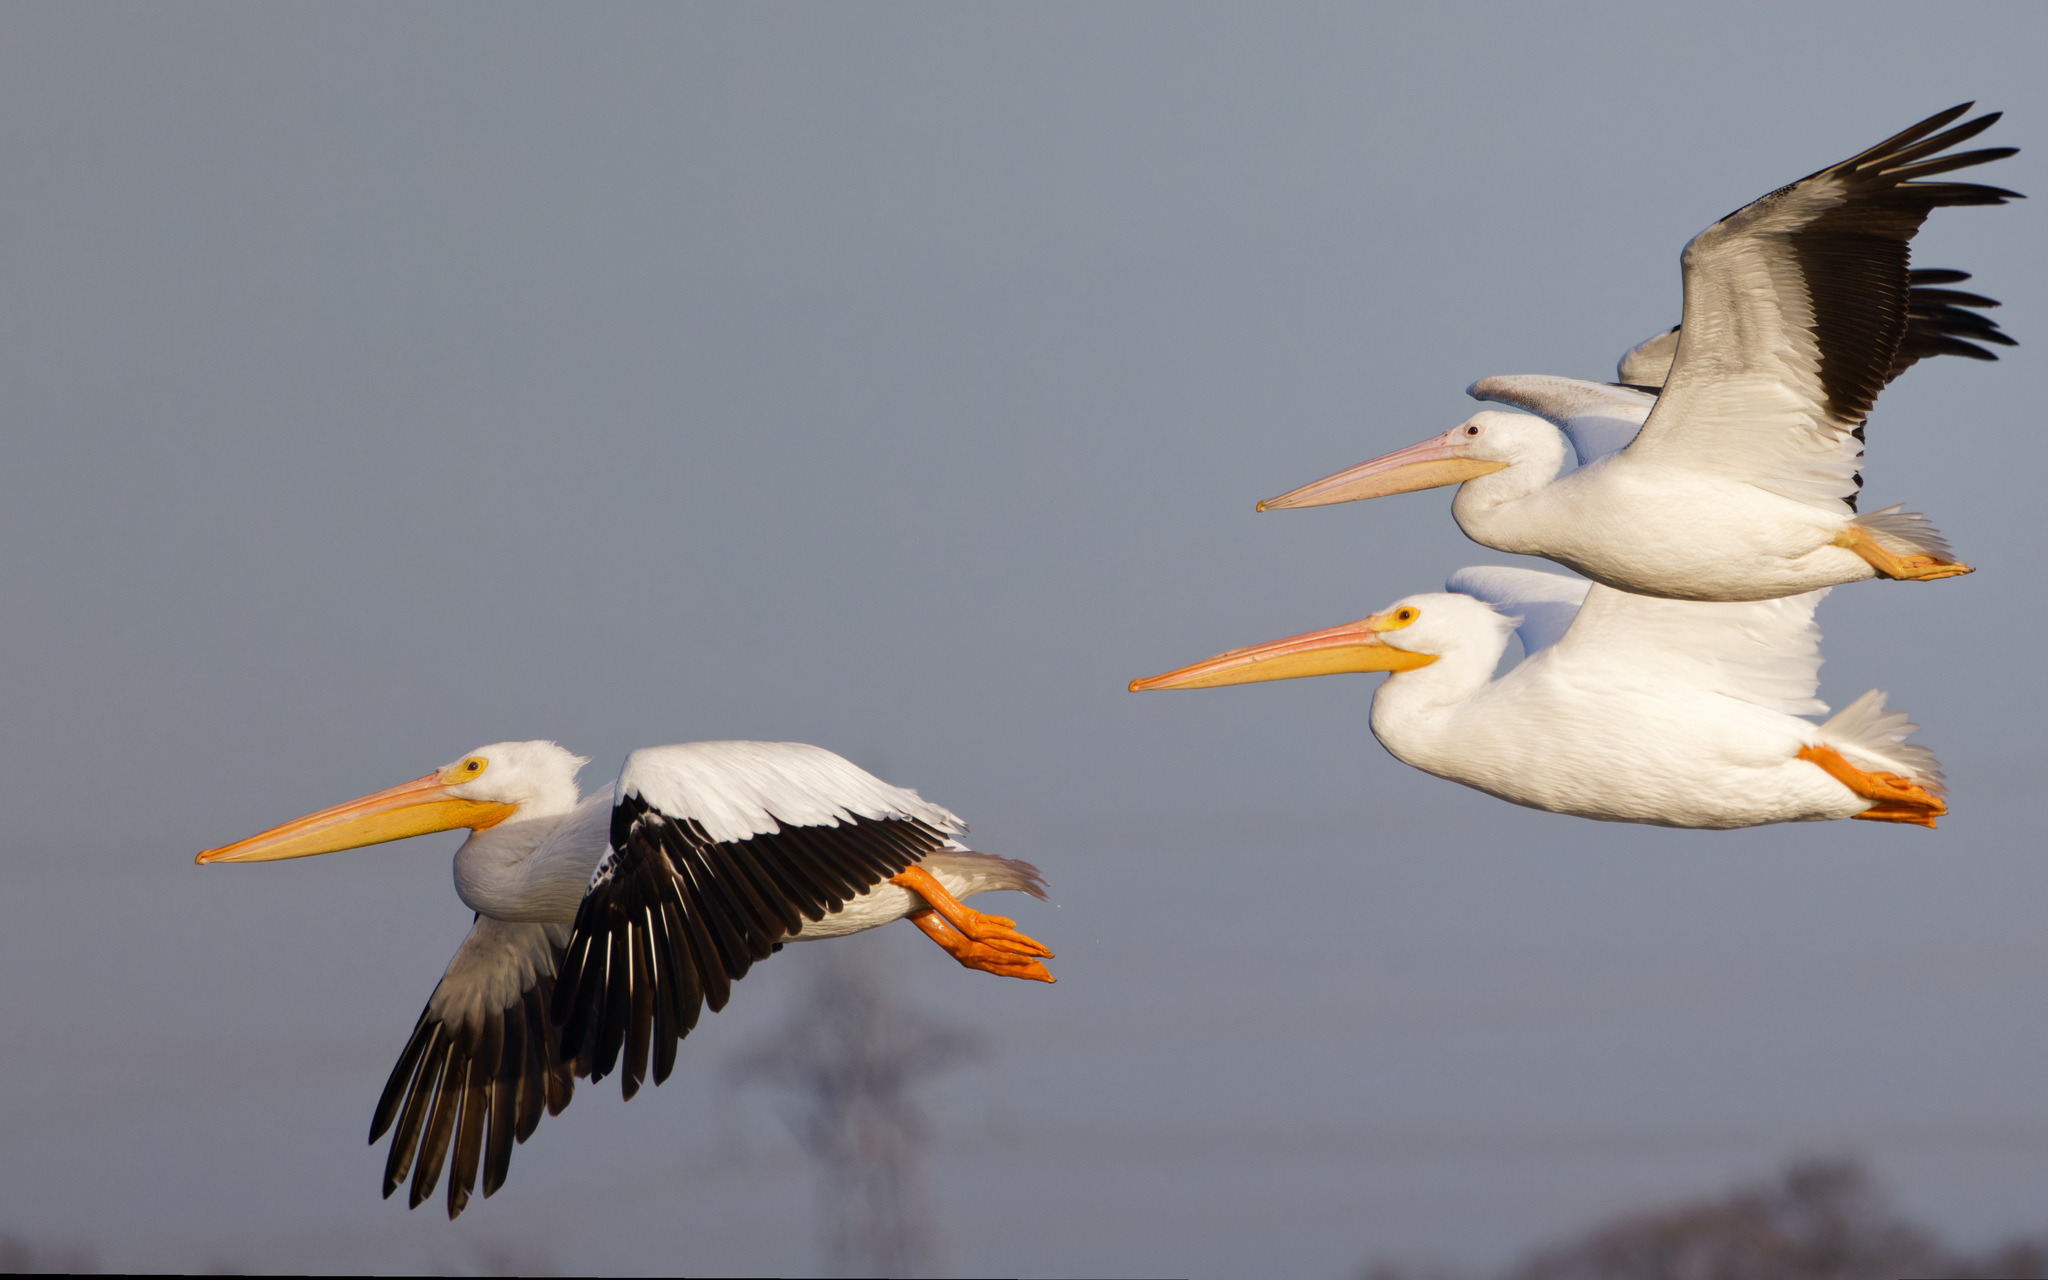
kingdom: Animalia
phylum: Chordata
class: Aves
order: Pelecaniformes
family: Pelecanidae
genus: Pelecanus
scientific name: Pelecanus erythrorhynchos
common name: American white pelican
